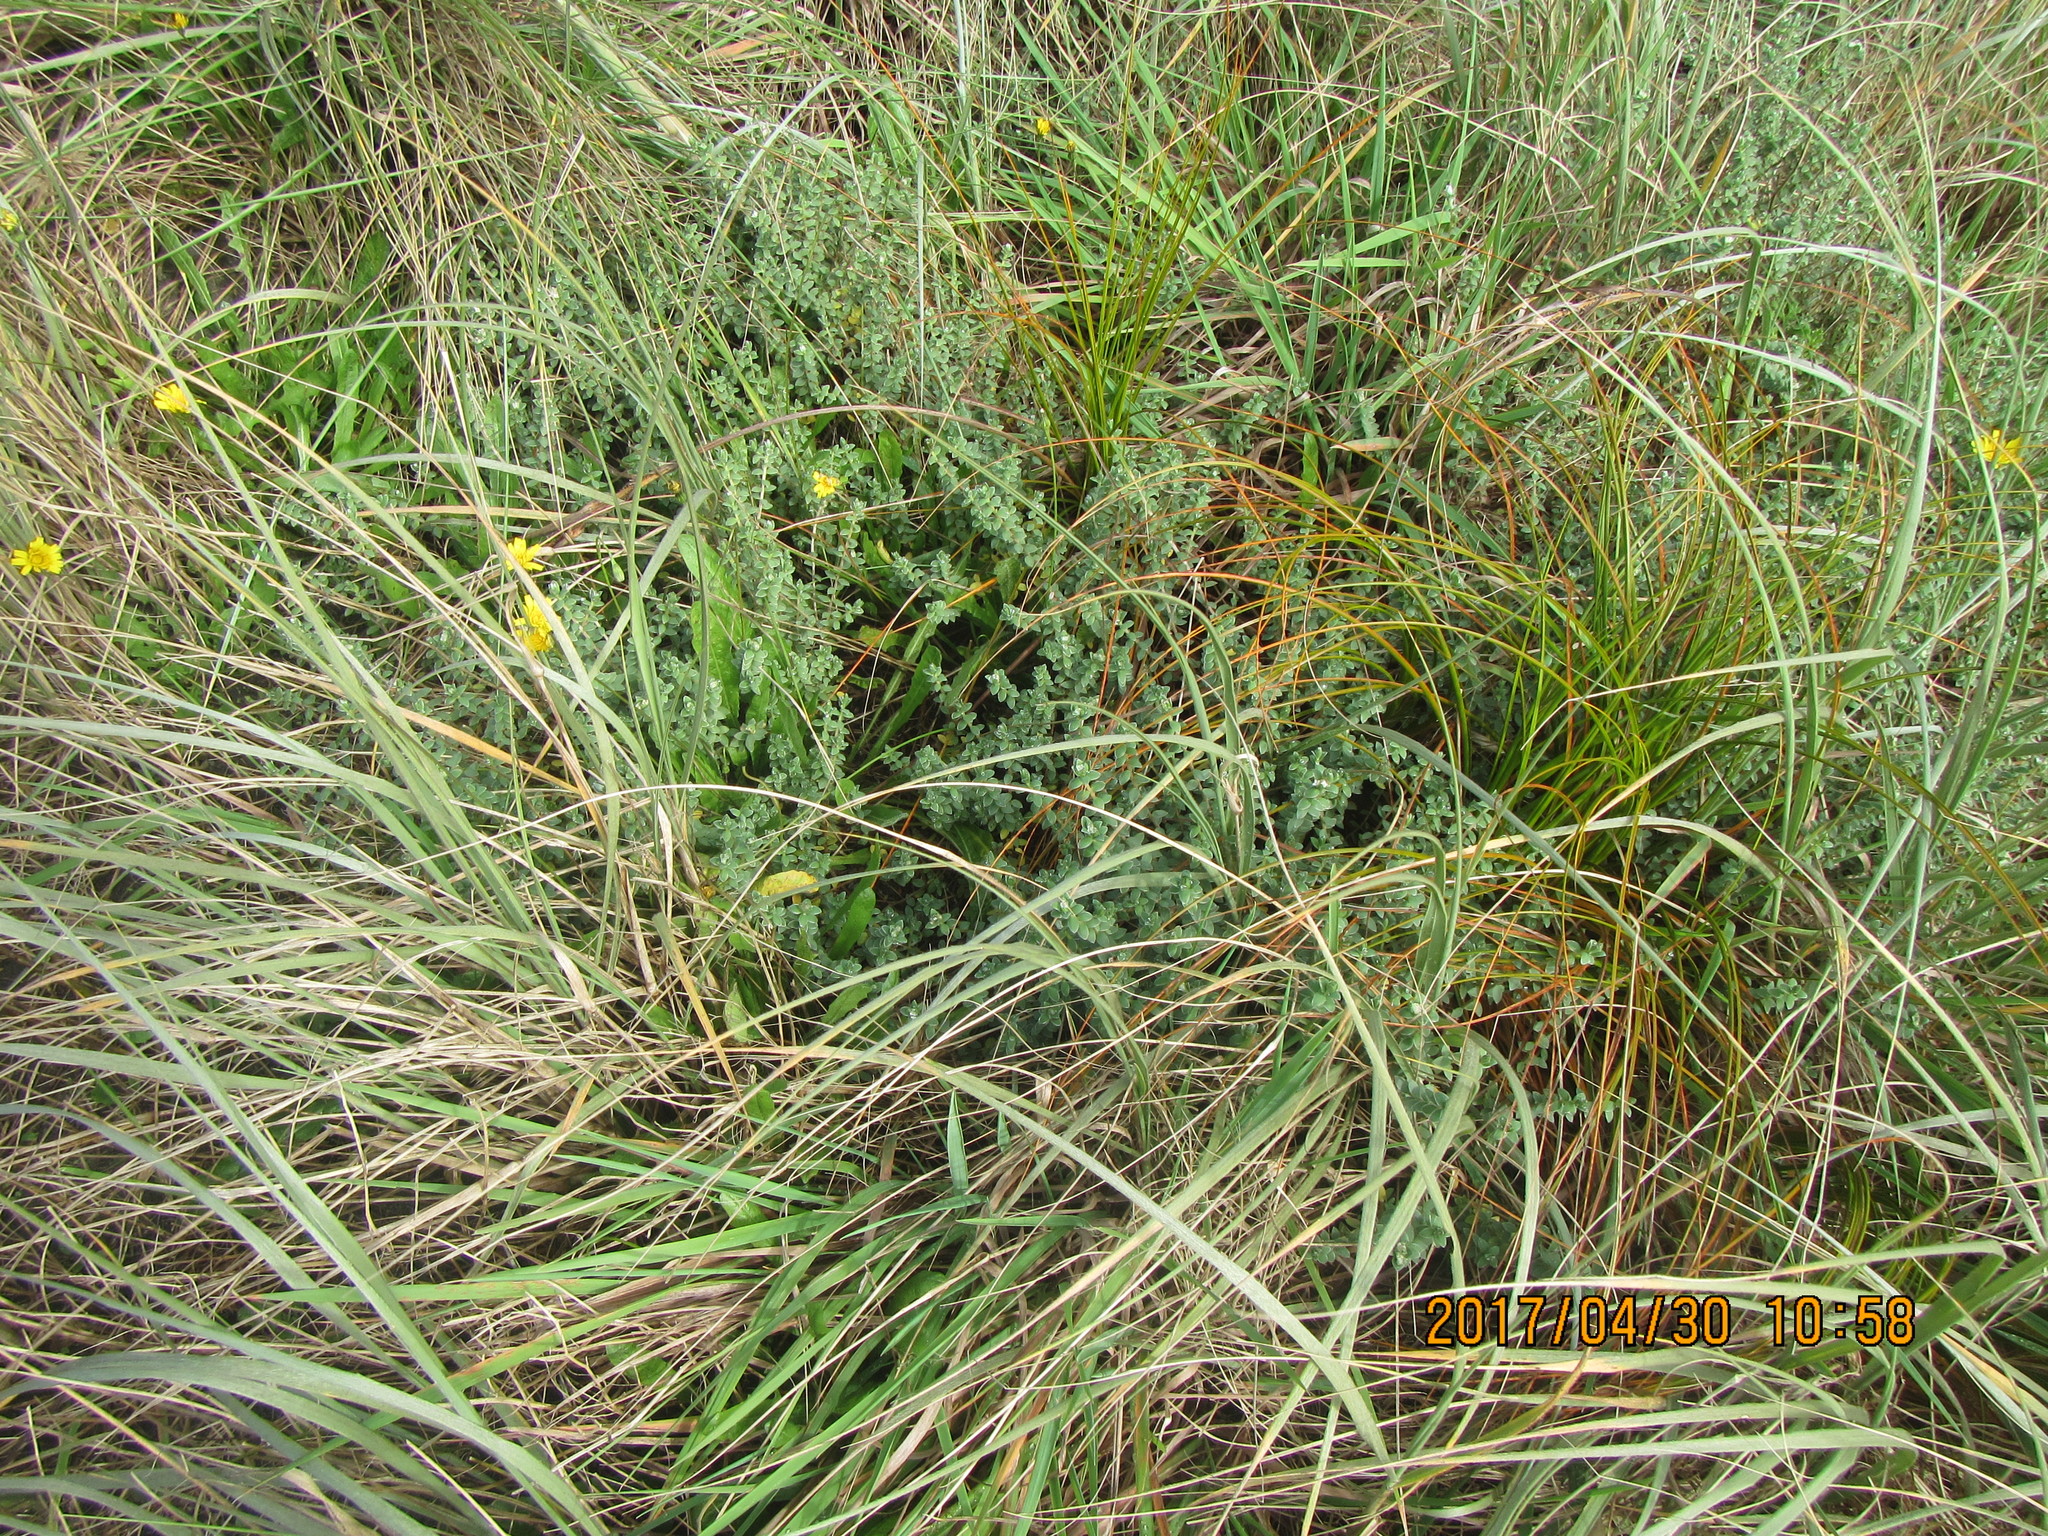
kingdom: Plantae
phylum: Tracheophyta
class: Magnoliopsida
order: Malvales
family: Thymelaeaceae
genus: Pimelea
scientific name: Pimelea villosa
